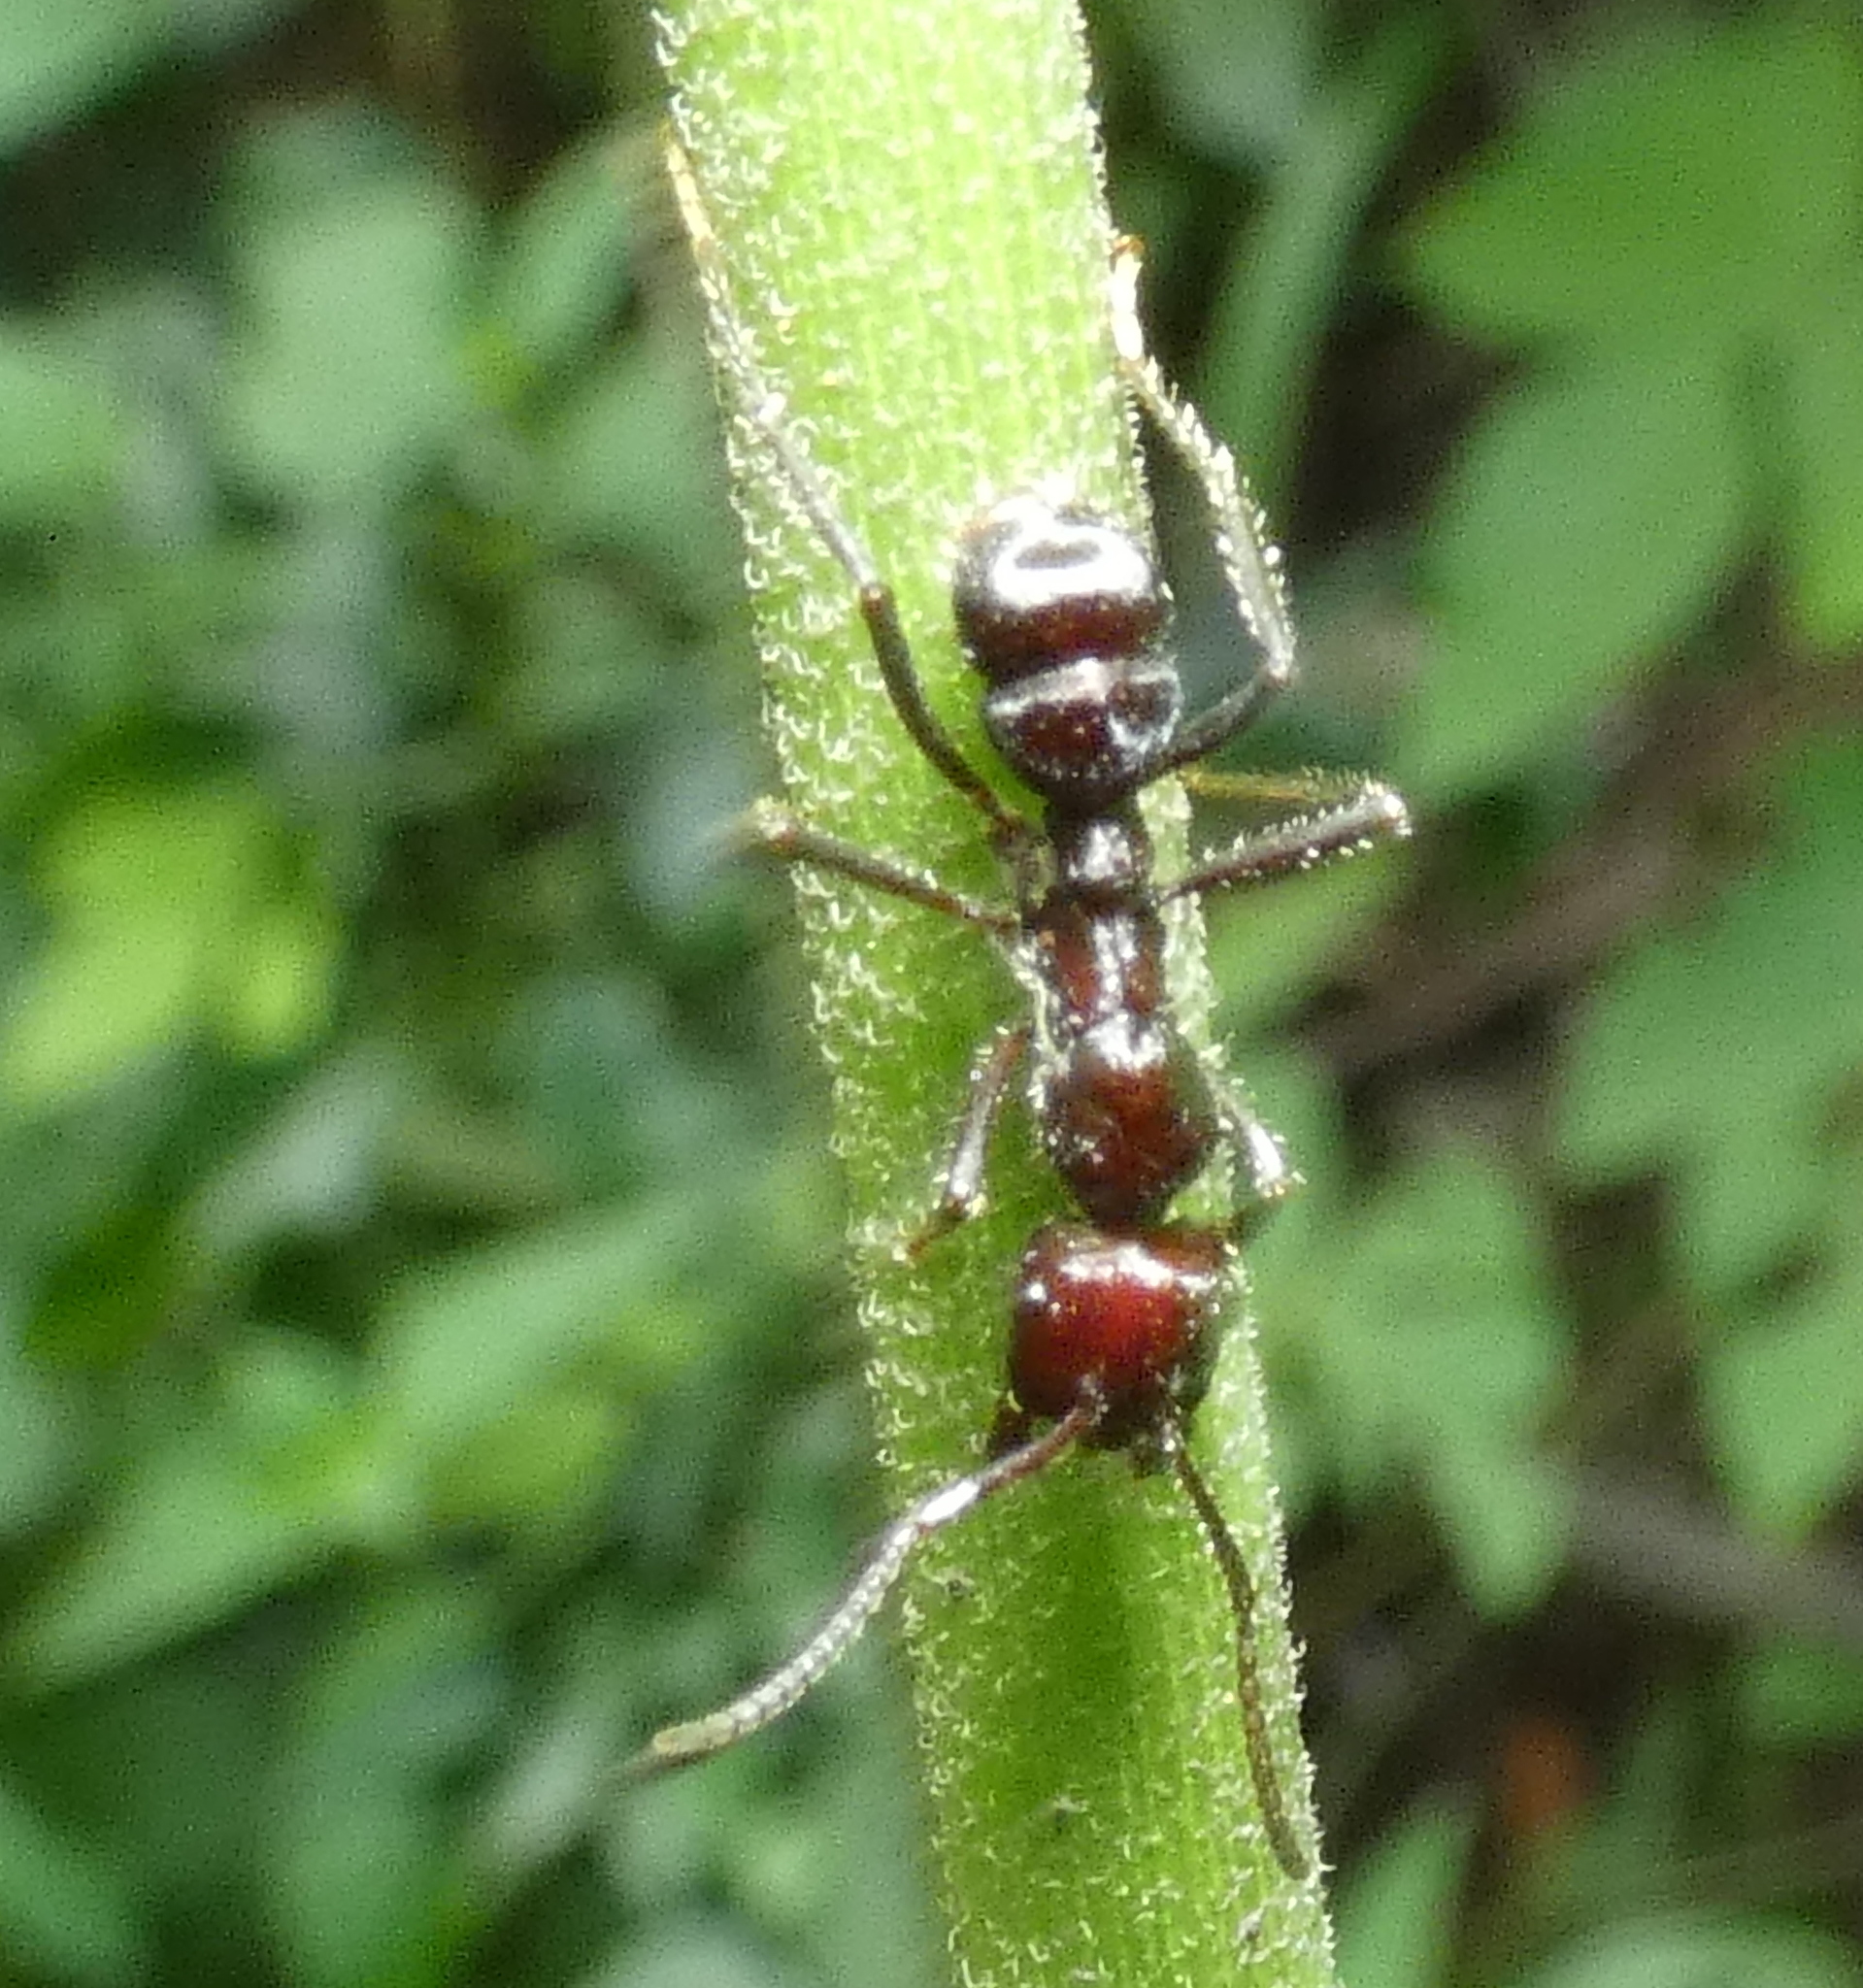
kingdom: Animalia
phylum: Arthropoda
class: Insecta
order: Hymenoptera
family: Formicidae
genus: Ectatomma
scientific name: Ectatomma brunneum
